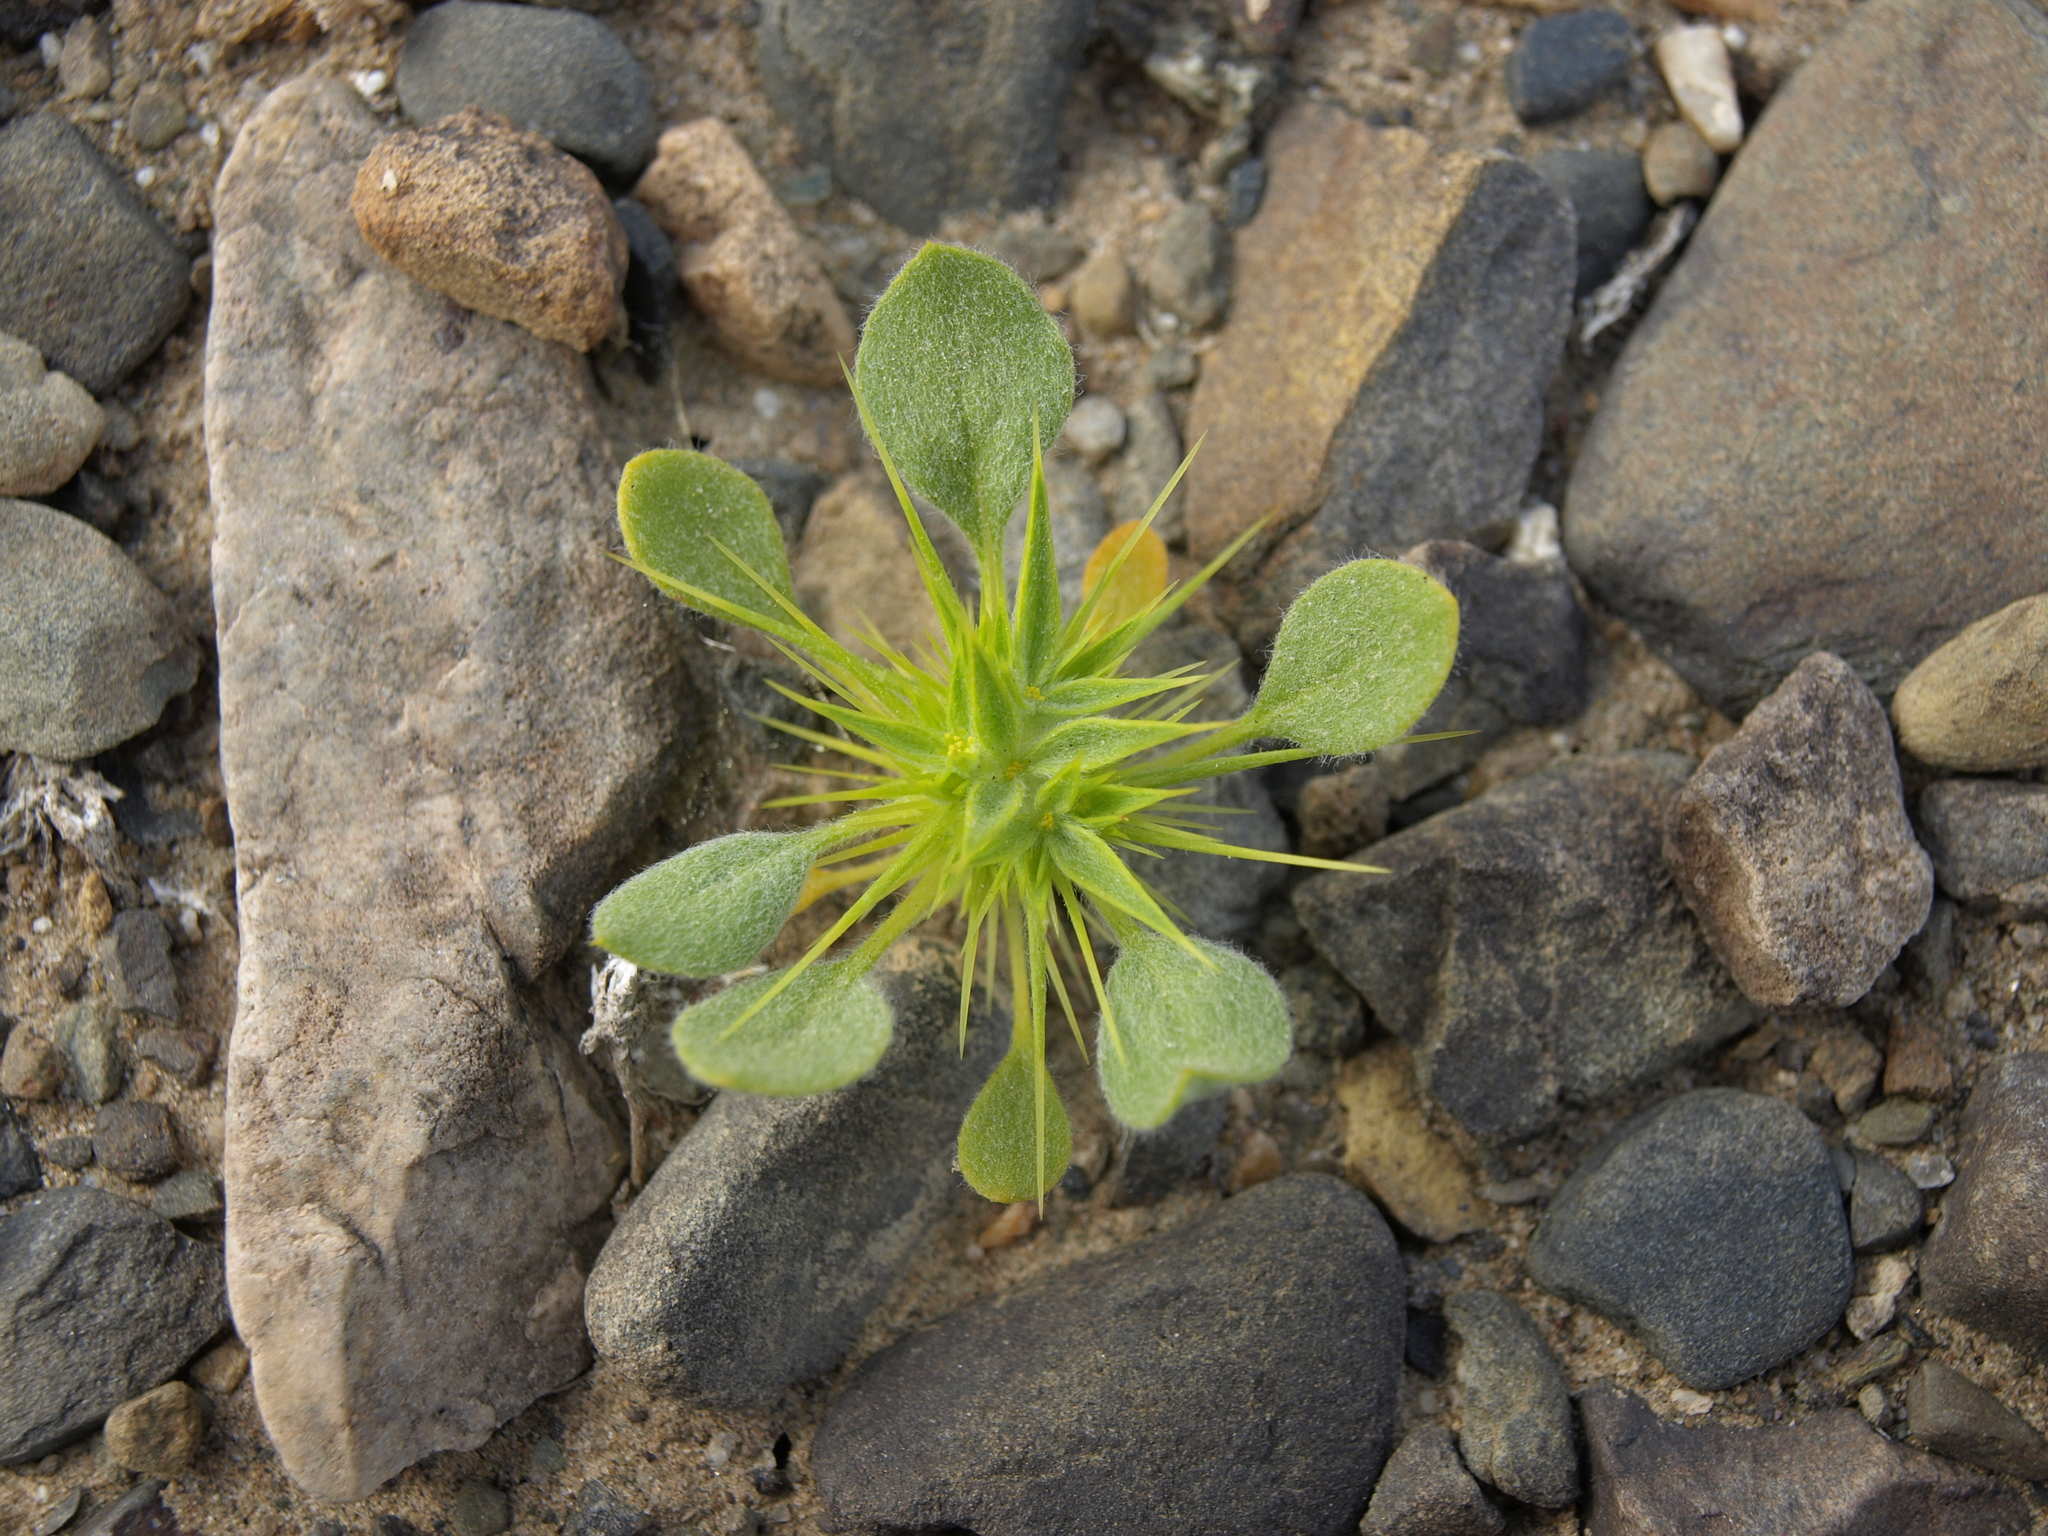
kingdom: Plantae
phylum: Tracheophyta
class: Magnoliopsida
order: Caryophyllales
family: Polygonaceae
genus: Chorizanthe
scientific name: Chorizanthe rigida
